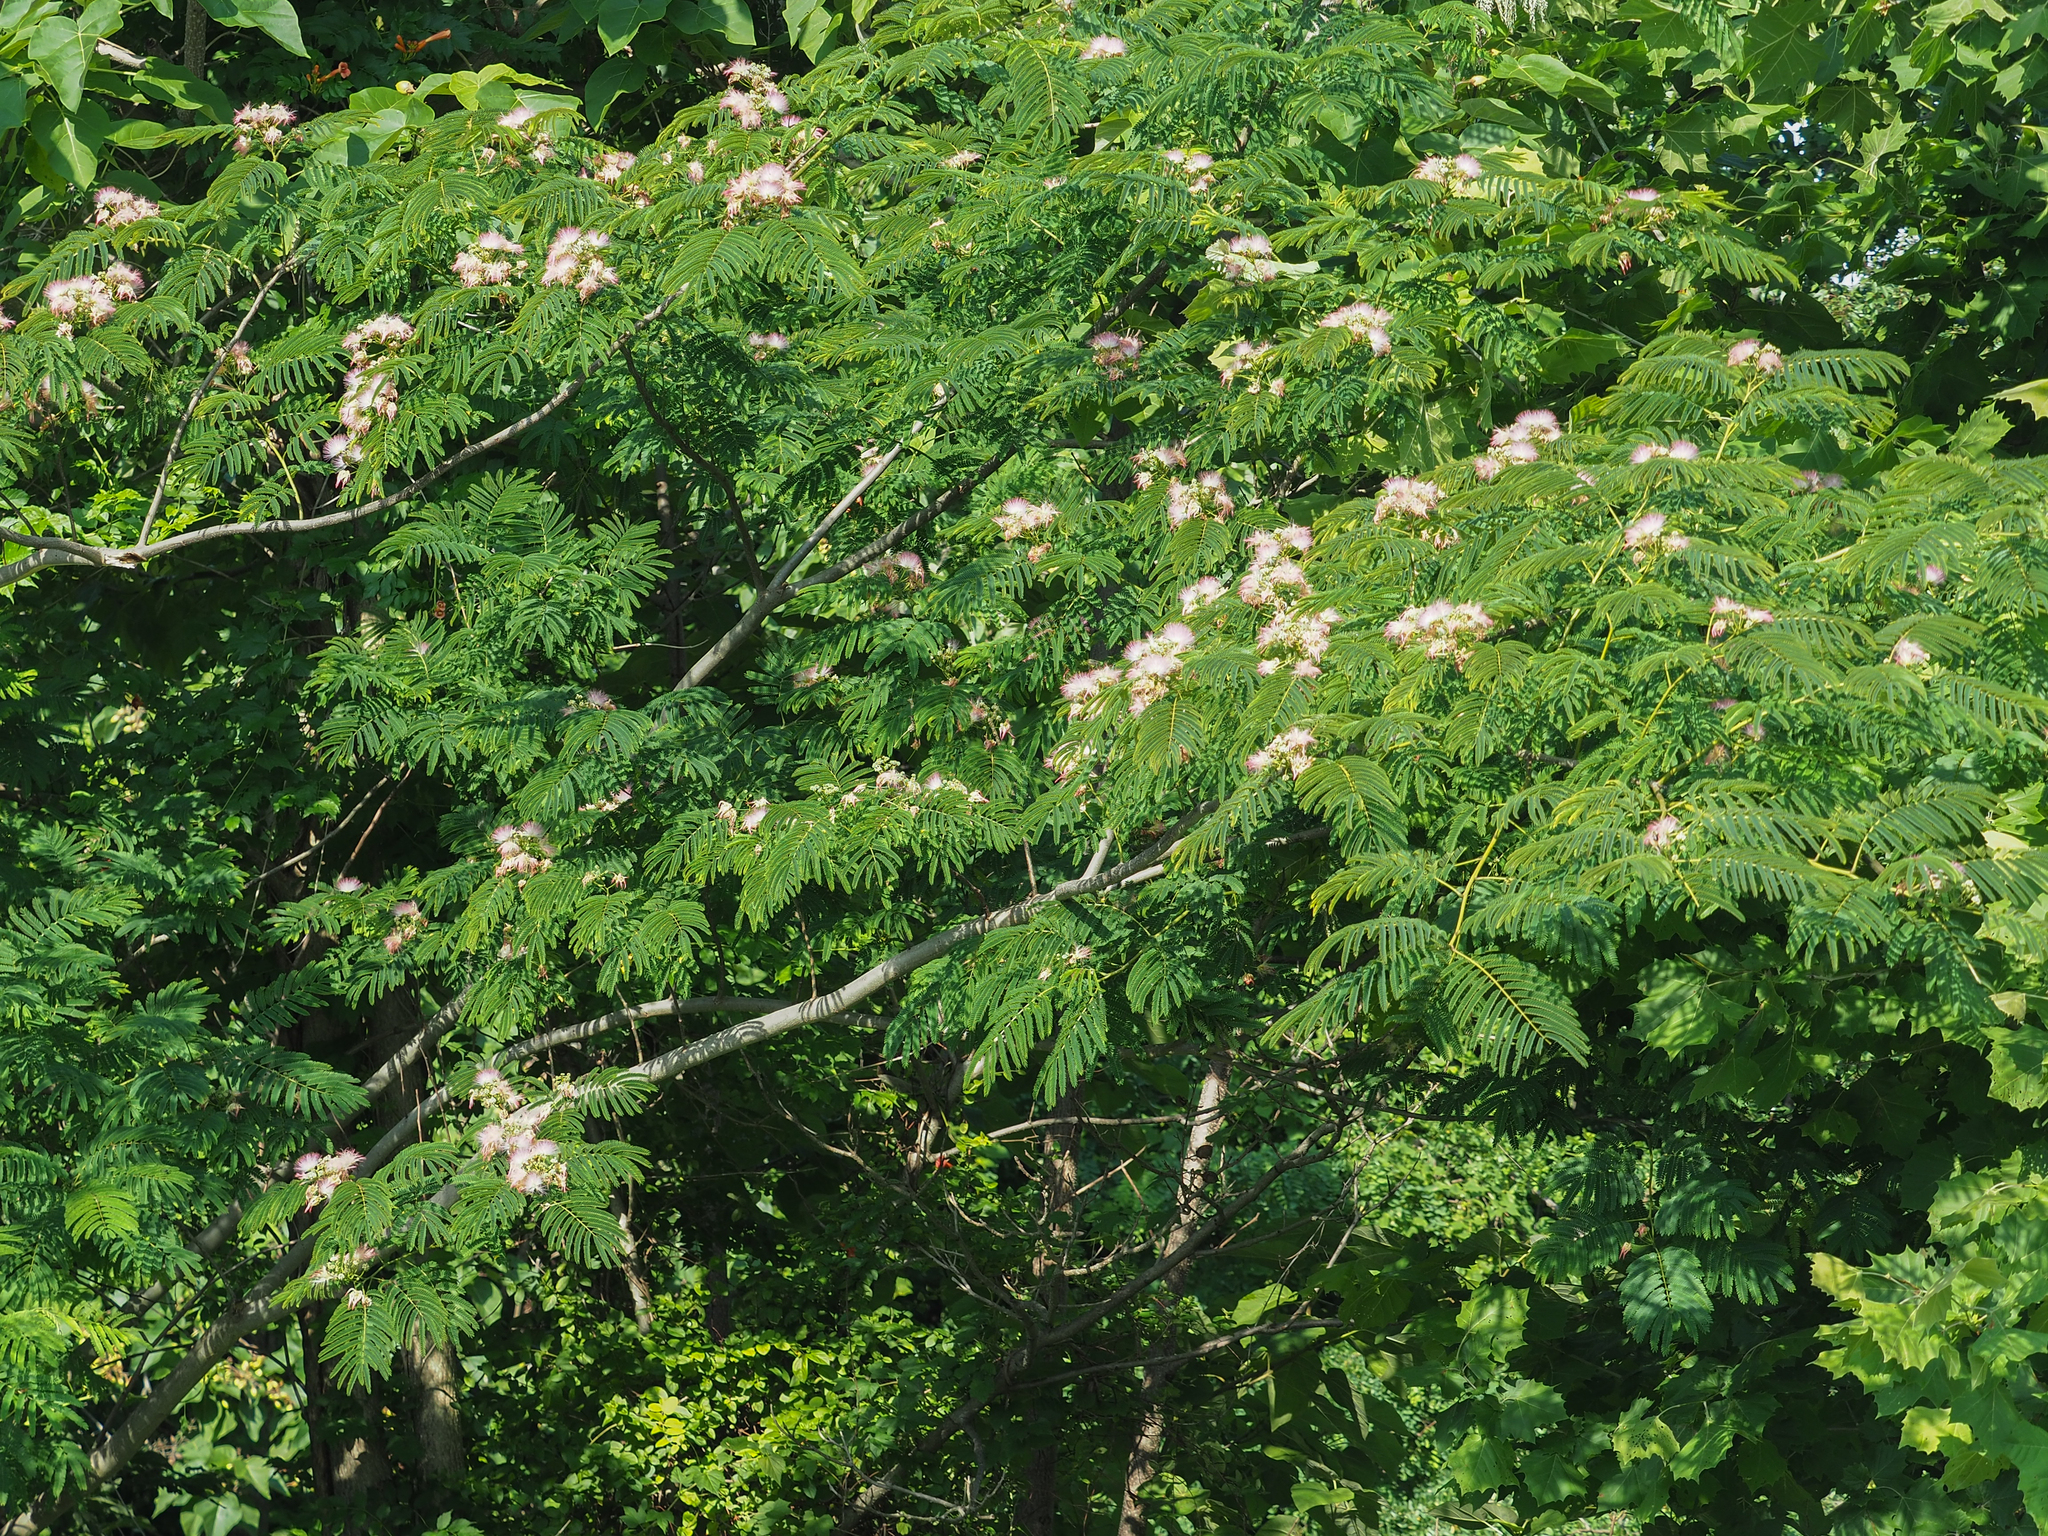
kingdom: Plantae
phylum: Tracheophyta
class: Magnoliopsida
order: Fabales
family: Fabaceae
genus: Albizia
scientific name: Albizia julibrissin
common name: Silktree
